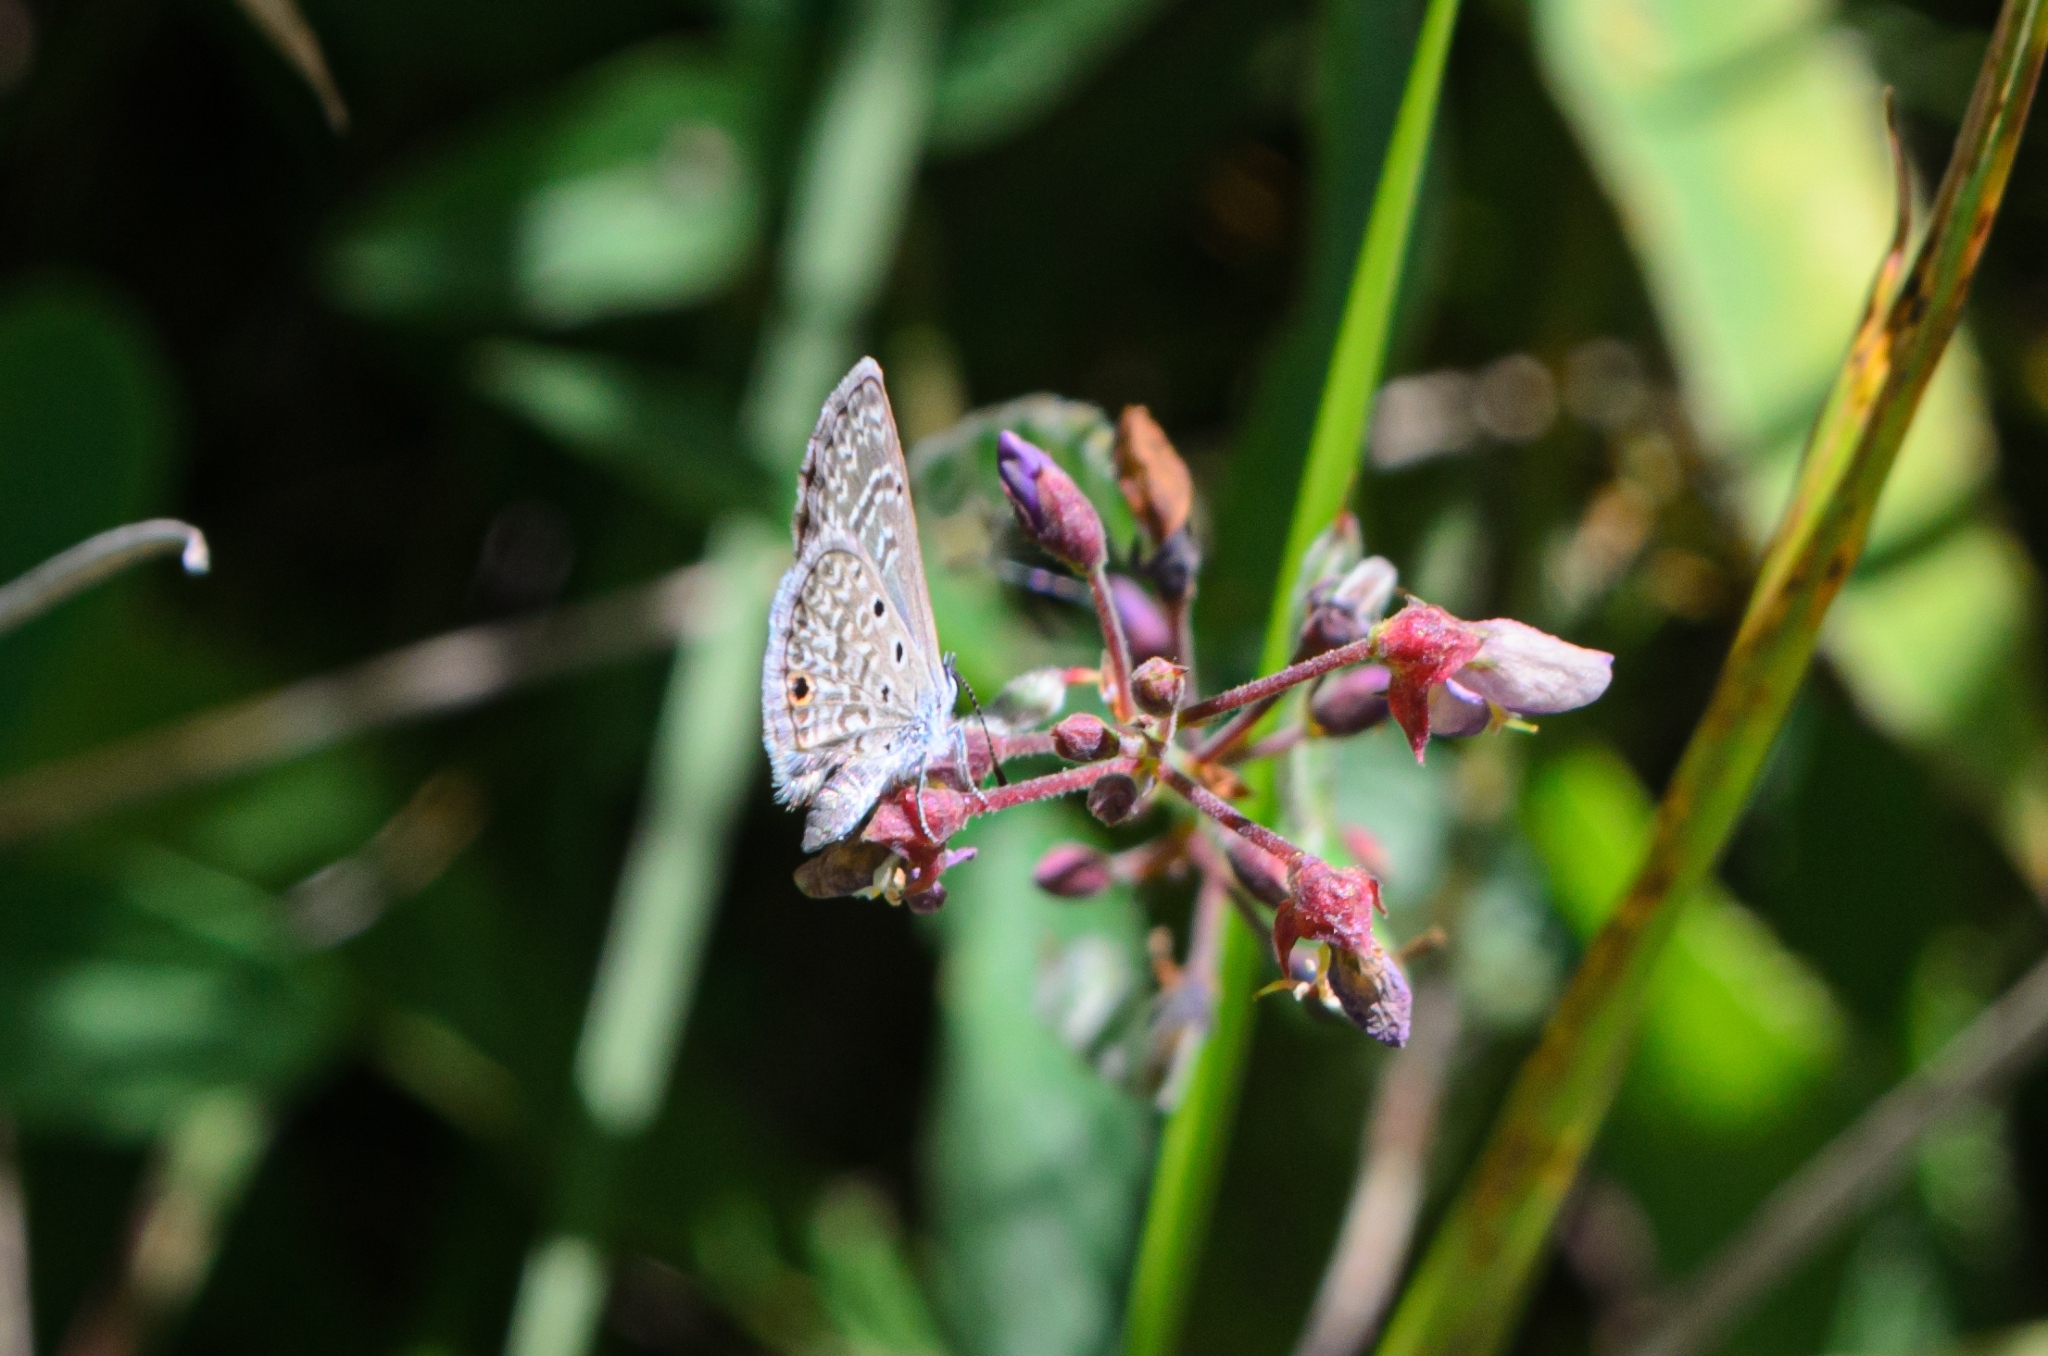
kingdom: Animalia
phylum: Arthropoda
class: Insecta
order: Lepidoptera
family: Lycaenidae
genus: Hemiargus
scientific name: Hemiargus hanno
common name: Common blue
